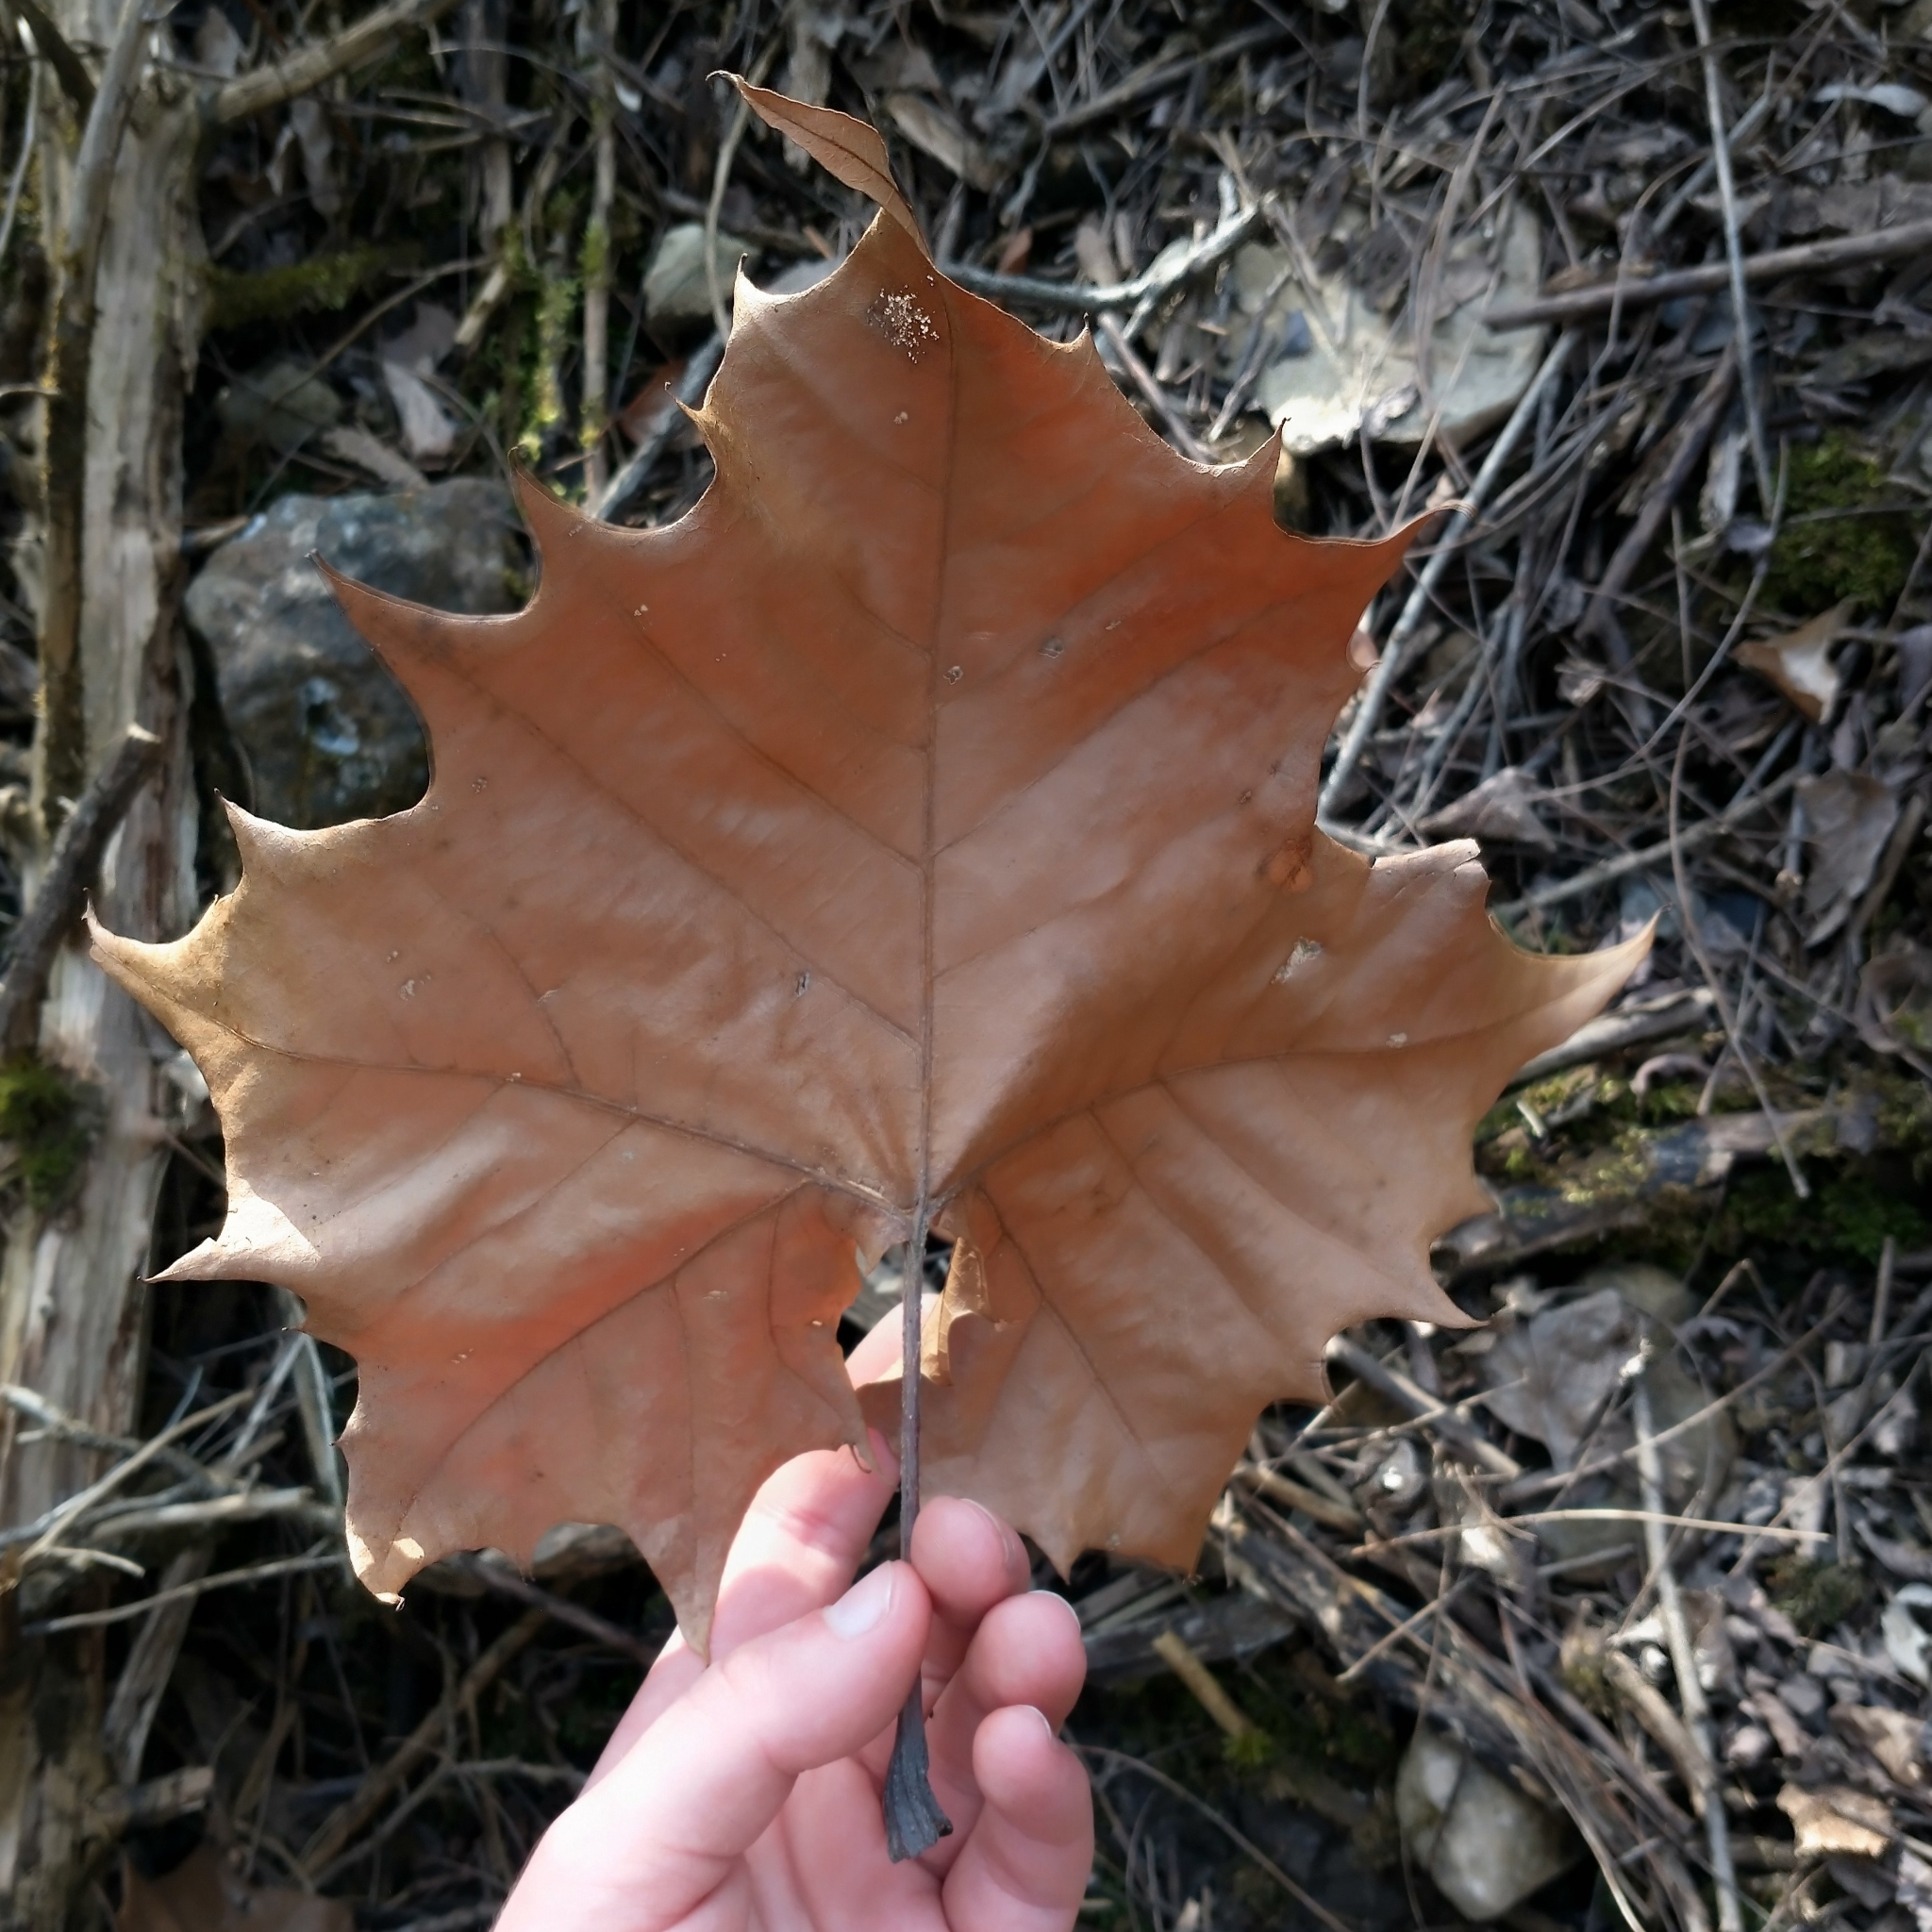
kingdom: Plantae
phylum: Tracheophyta
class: Magnoliopsida
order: Proteales
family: Platanaceae
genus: Platanus
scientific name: Platanus occidentalis
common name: American sycamore
